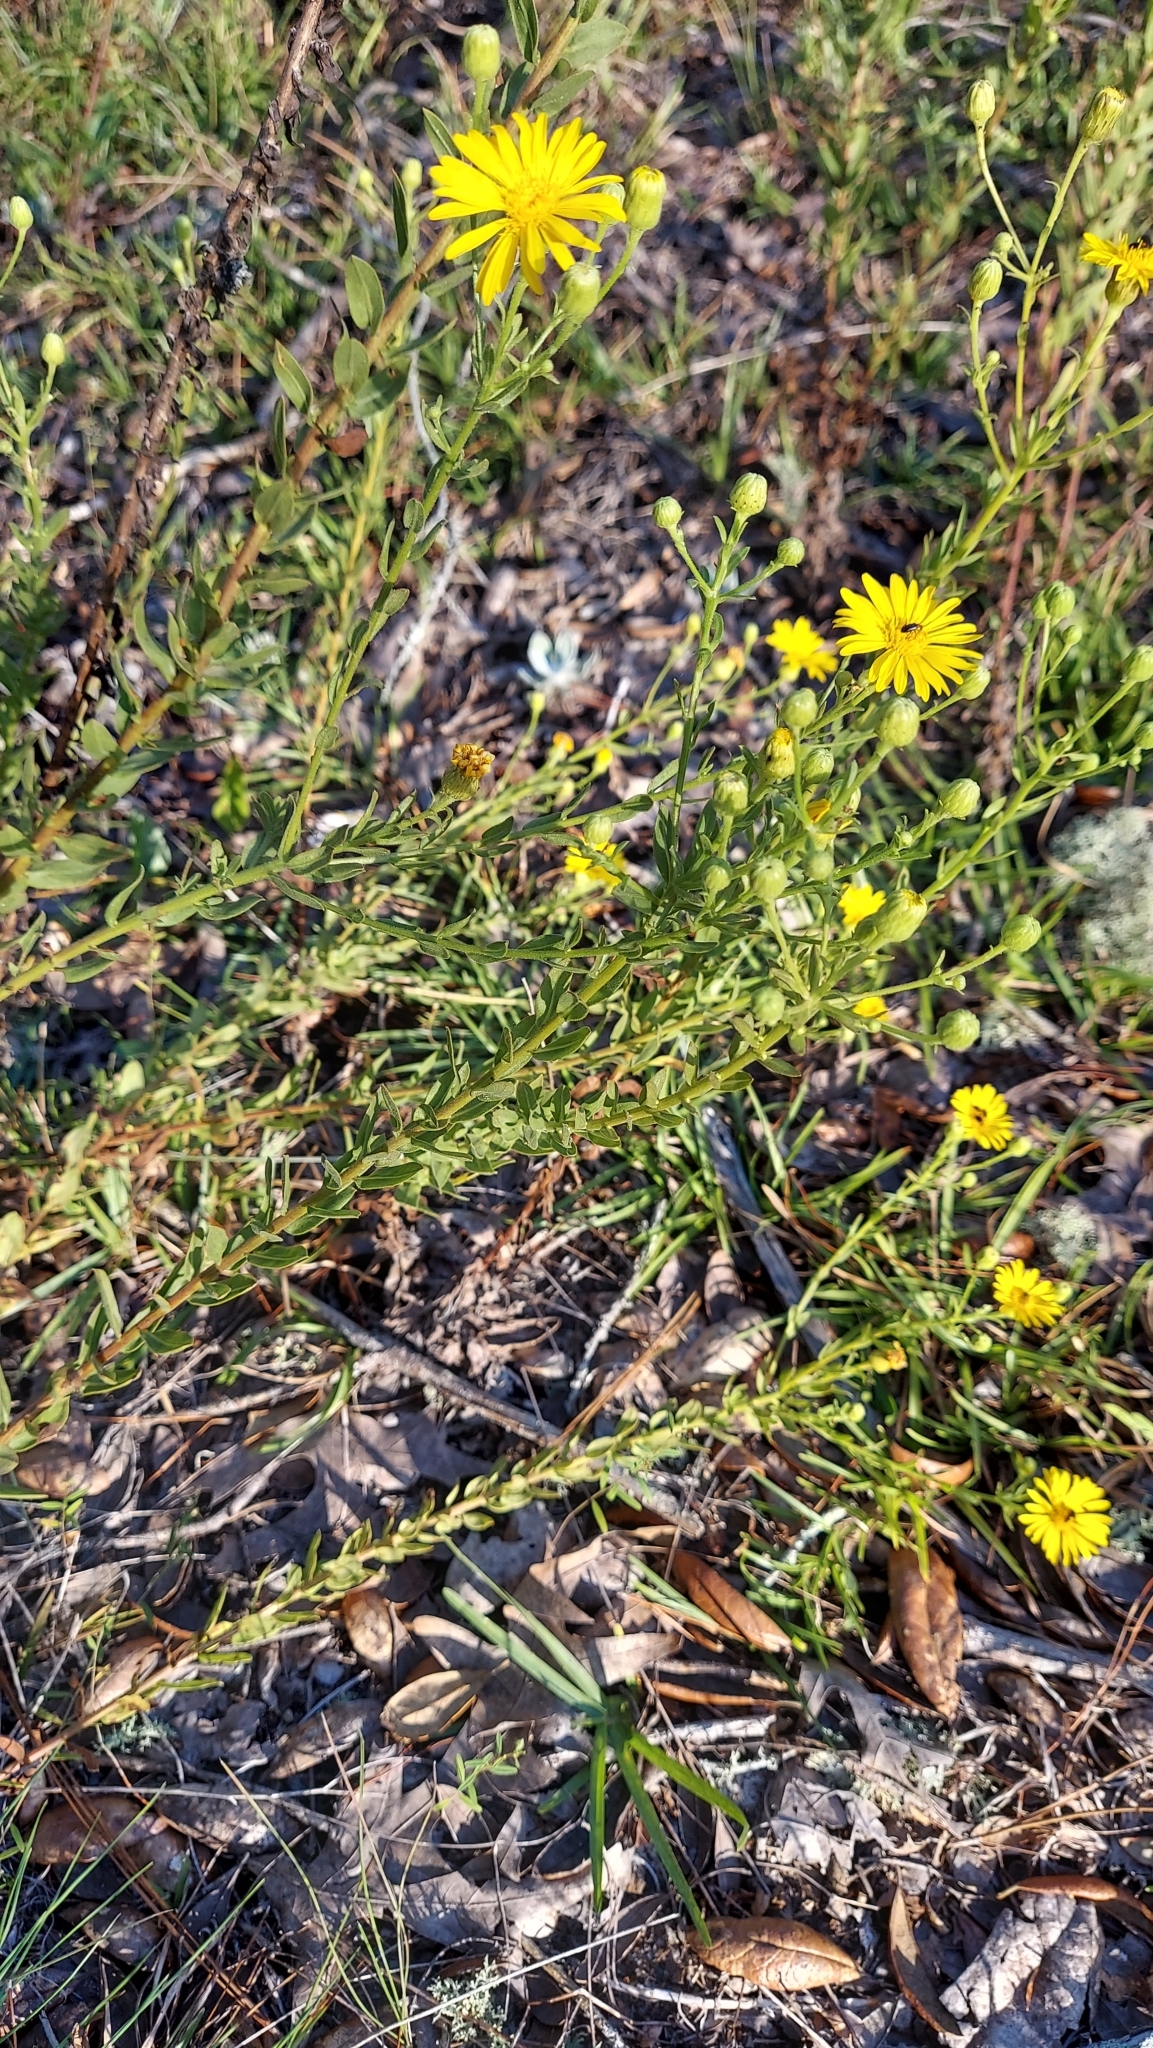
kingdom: Plantae
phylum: Tracheophyta
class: Magnoliopsida
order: Asterales
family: Asteraceae
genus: Chrysopsis
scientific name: Chrysopsis scabrella
